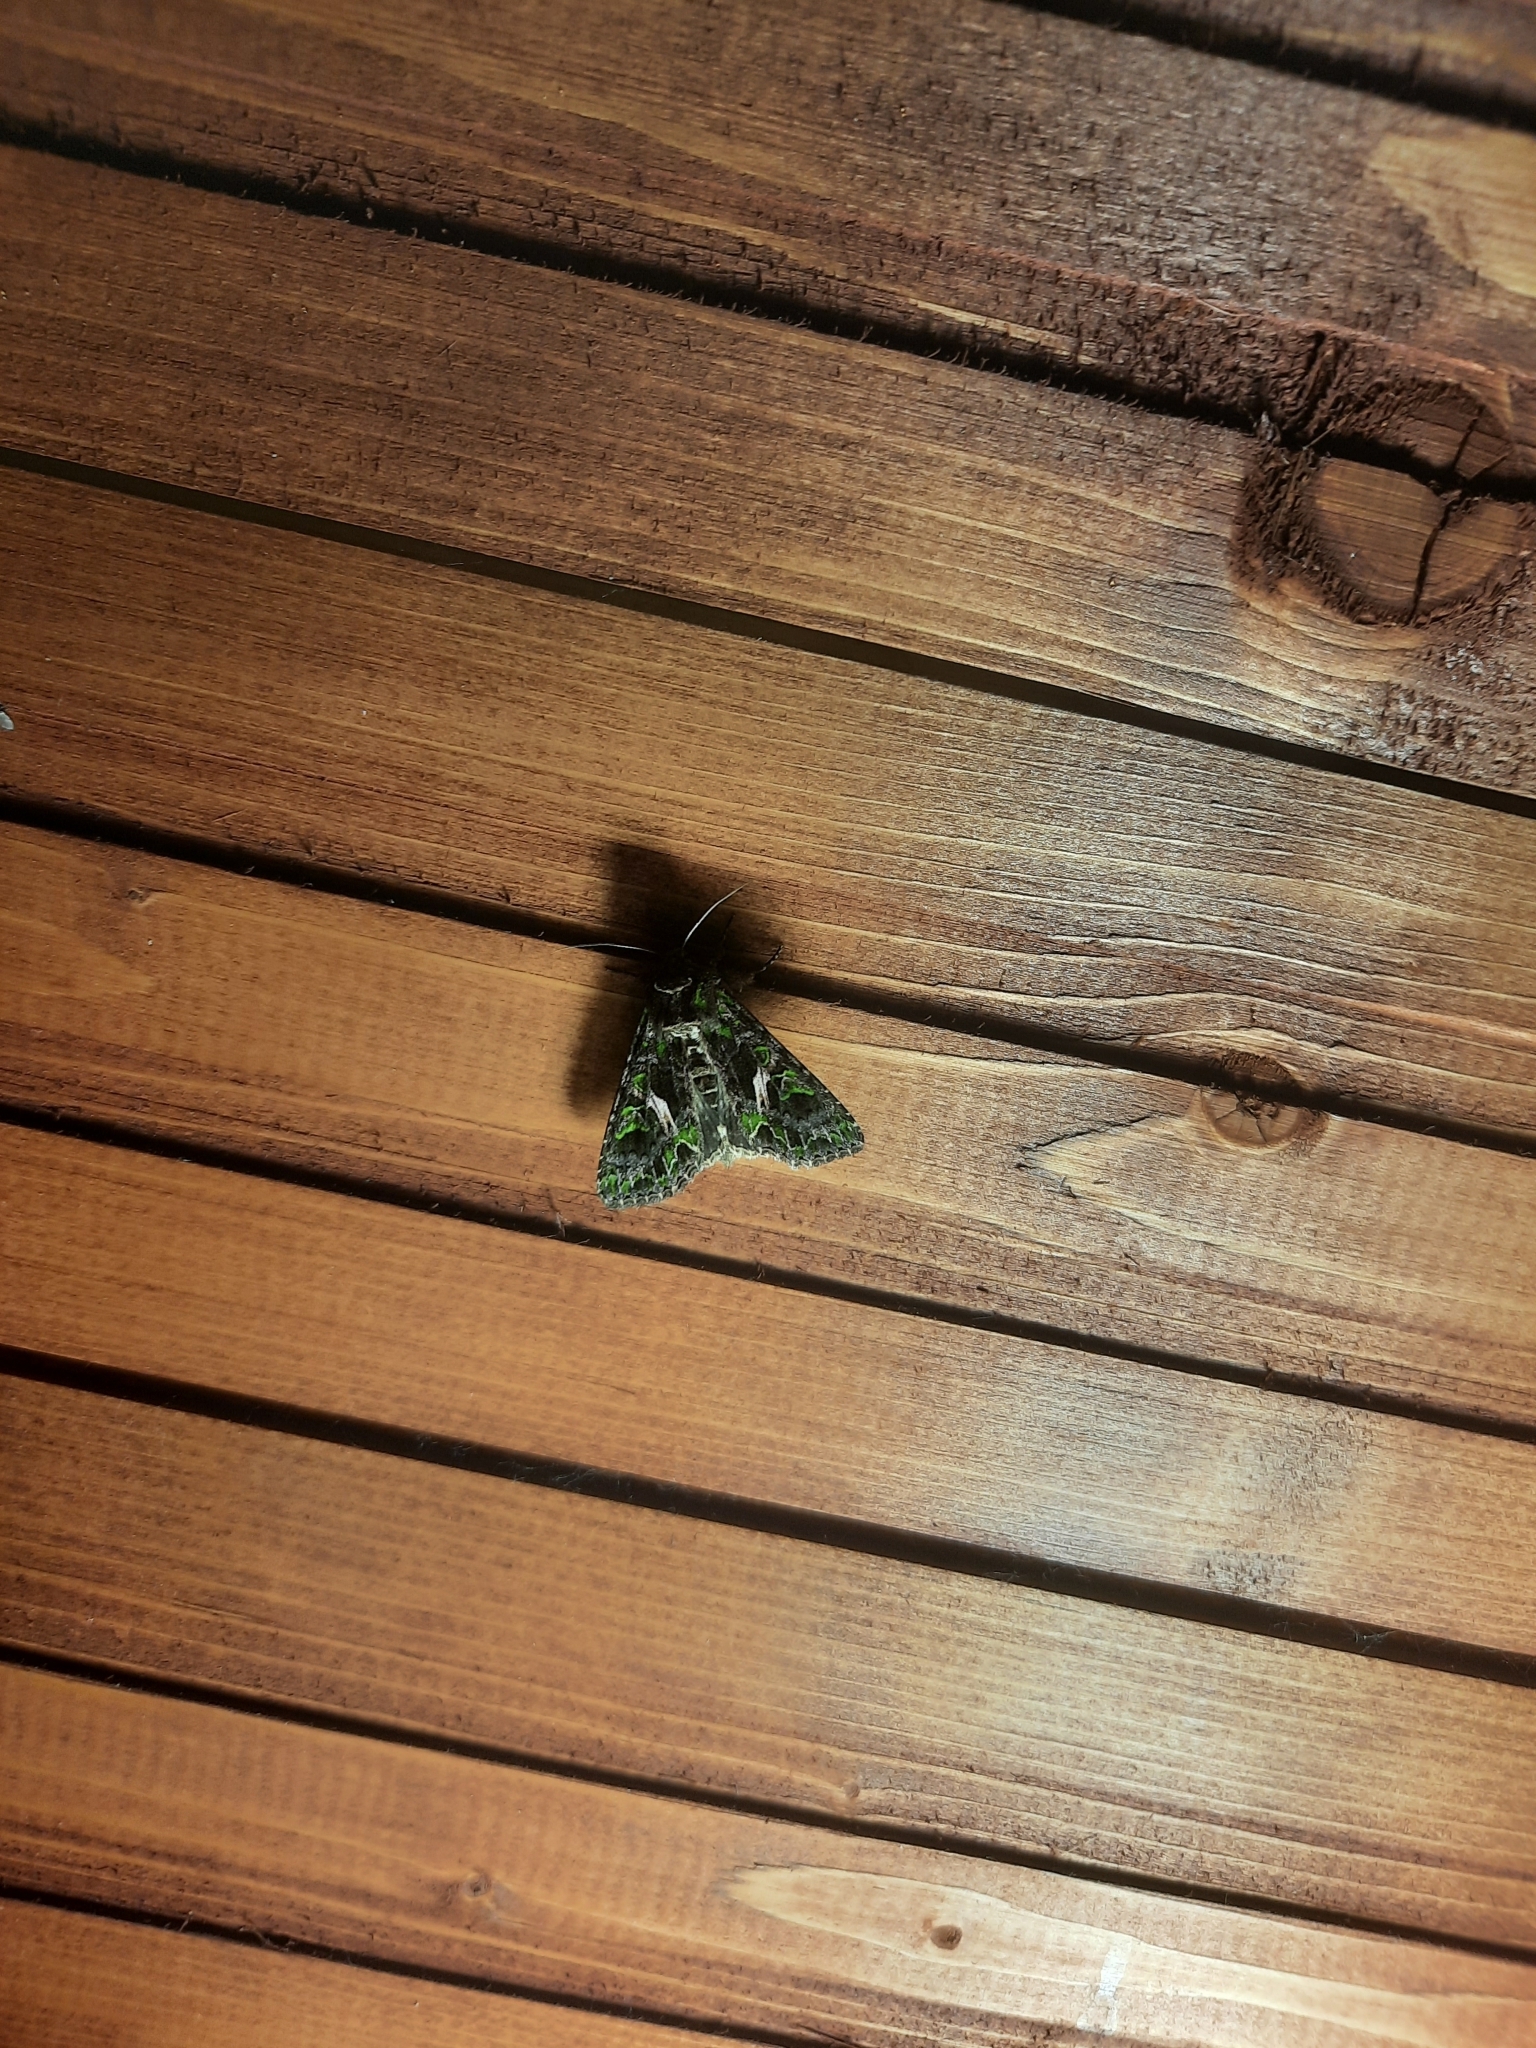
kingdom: Animalia
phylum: Arthropoda
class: Insecta
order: Lepidoptera
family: Noctuidae
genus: Trachea
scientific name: Trachea atriplicis
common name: Orache moth
